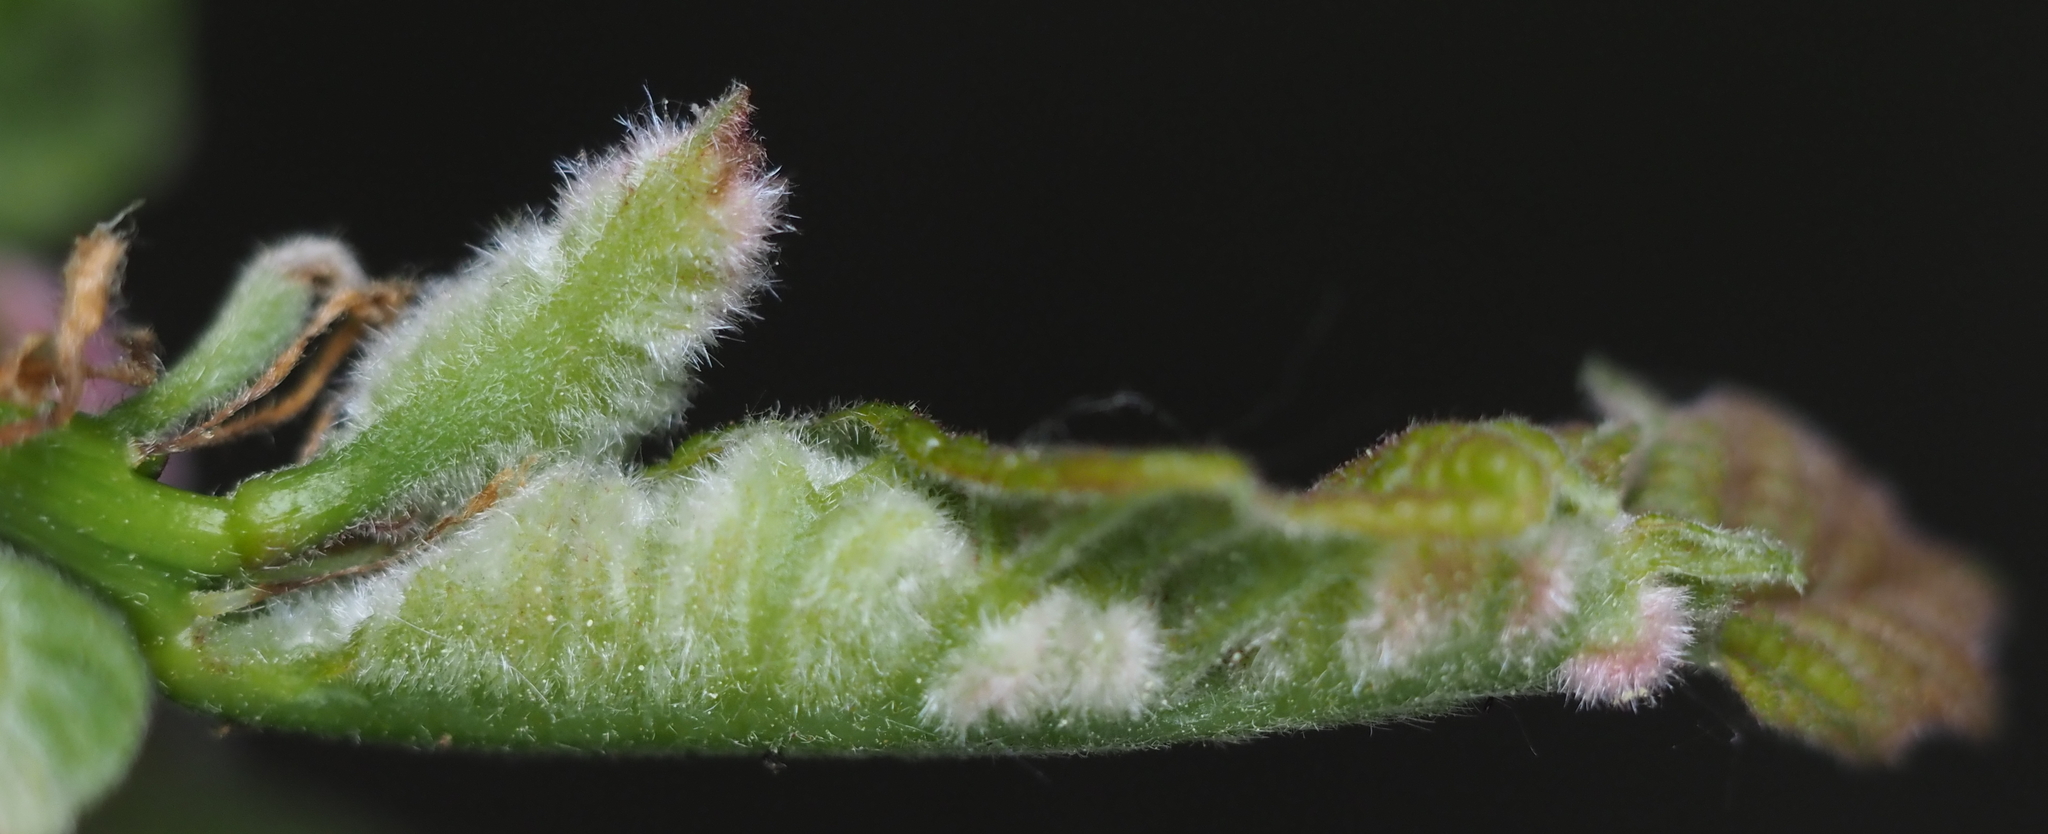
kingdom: Animalia
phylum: Arthropoda
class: Insecta
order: Diptera
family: Cecidomyiidae
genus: Macrodiplosis
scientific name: Macrodiplosis niveipila
